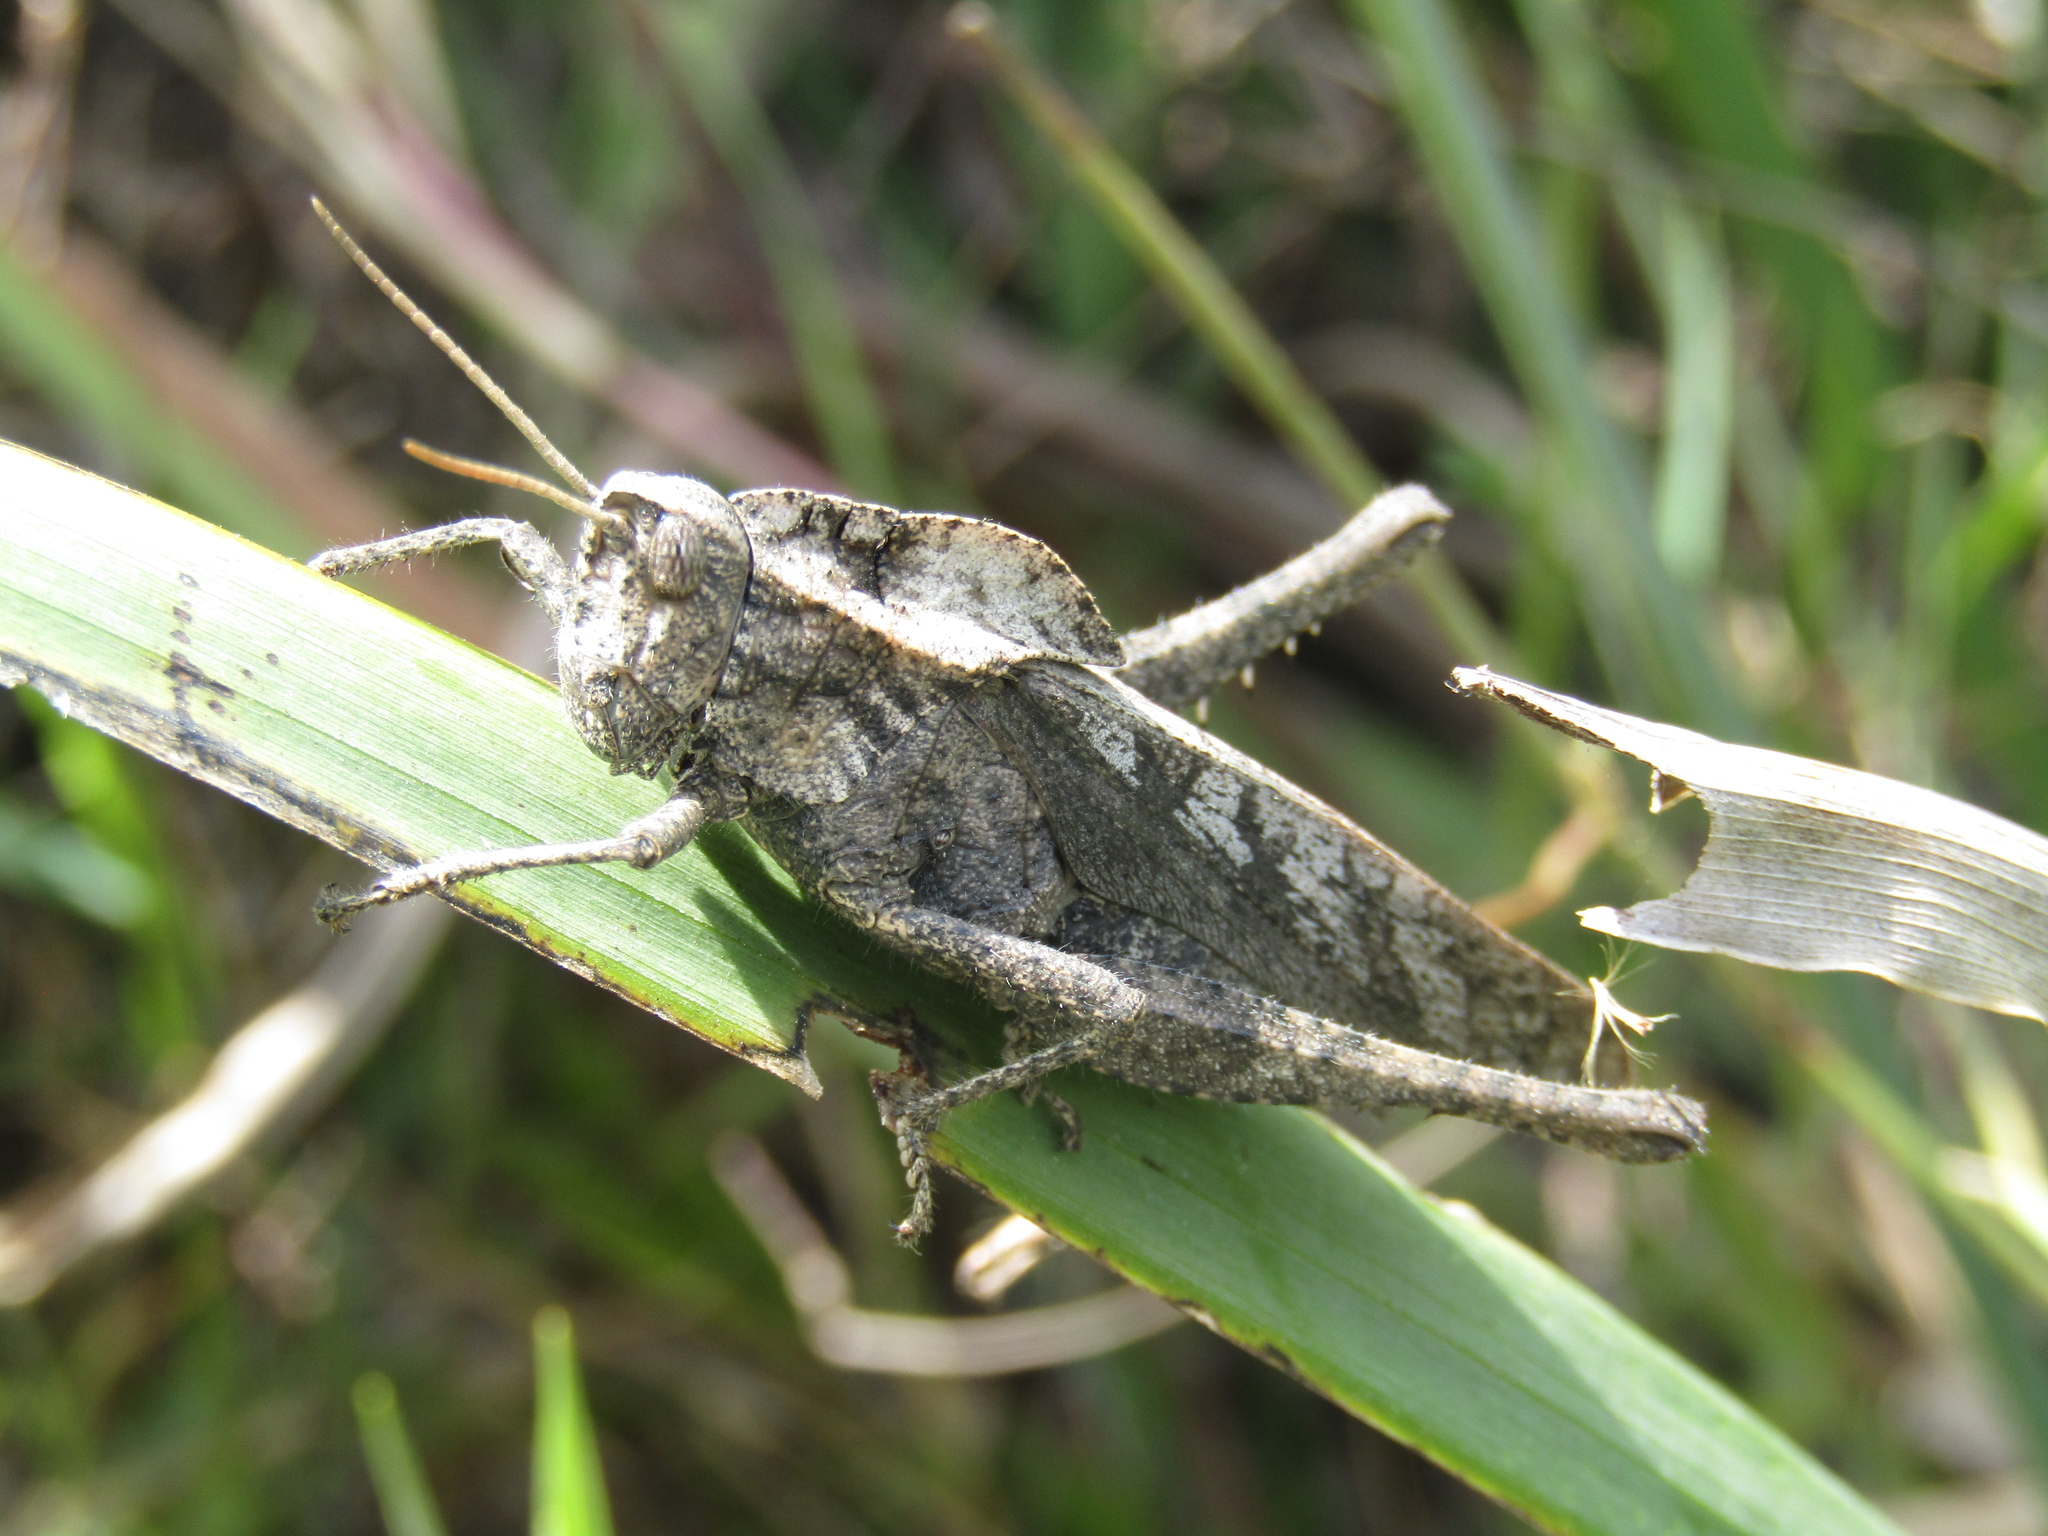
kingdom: Animalia
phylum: Arthropoda
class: Insecta
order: Orthoptera
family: Romaleidae
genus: Xyleus
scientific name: Xyleus discoideus
